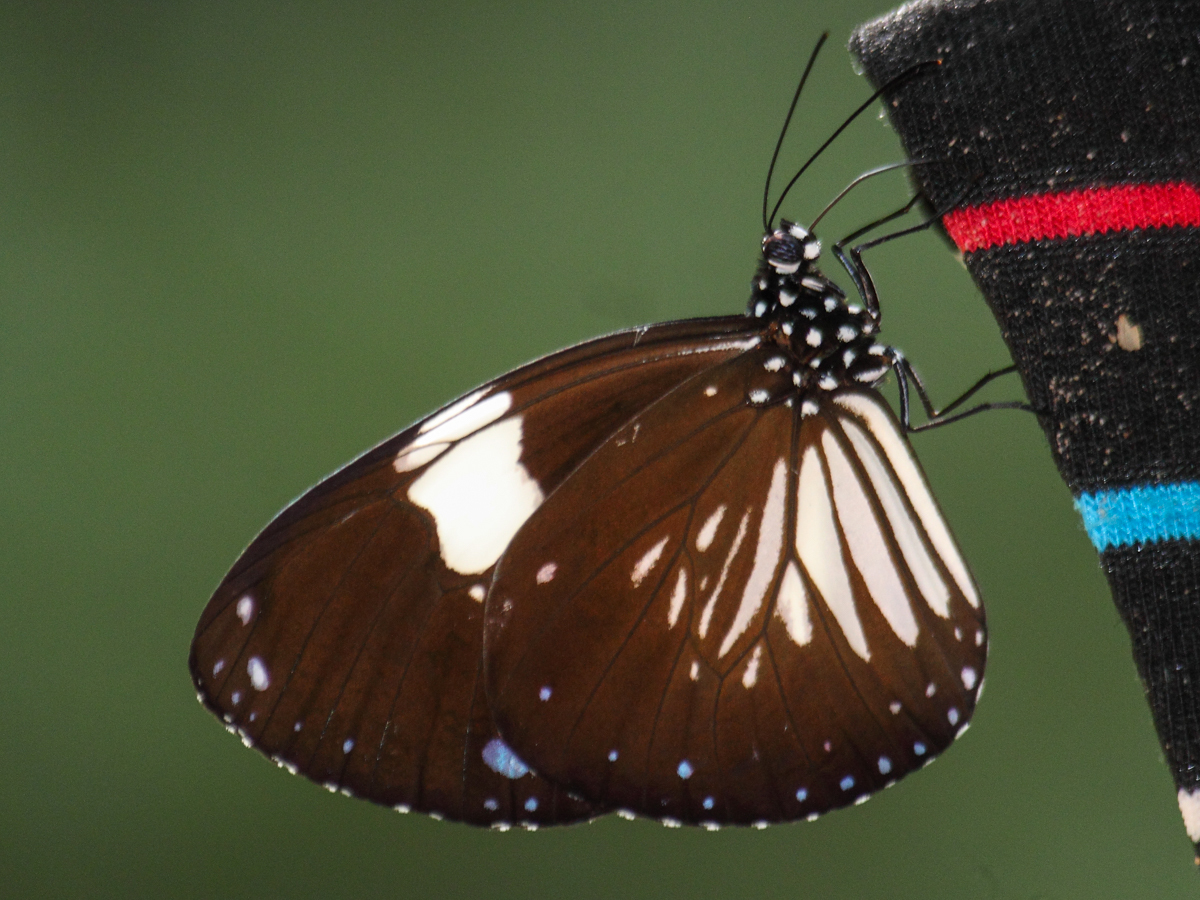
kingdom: Animalia
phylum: Arthropoda
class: Insecta
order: Lepidoptera
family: Nymphalidae
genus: Euploea
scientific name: Euploea radamanthus
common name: Magpie crow butterfly
